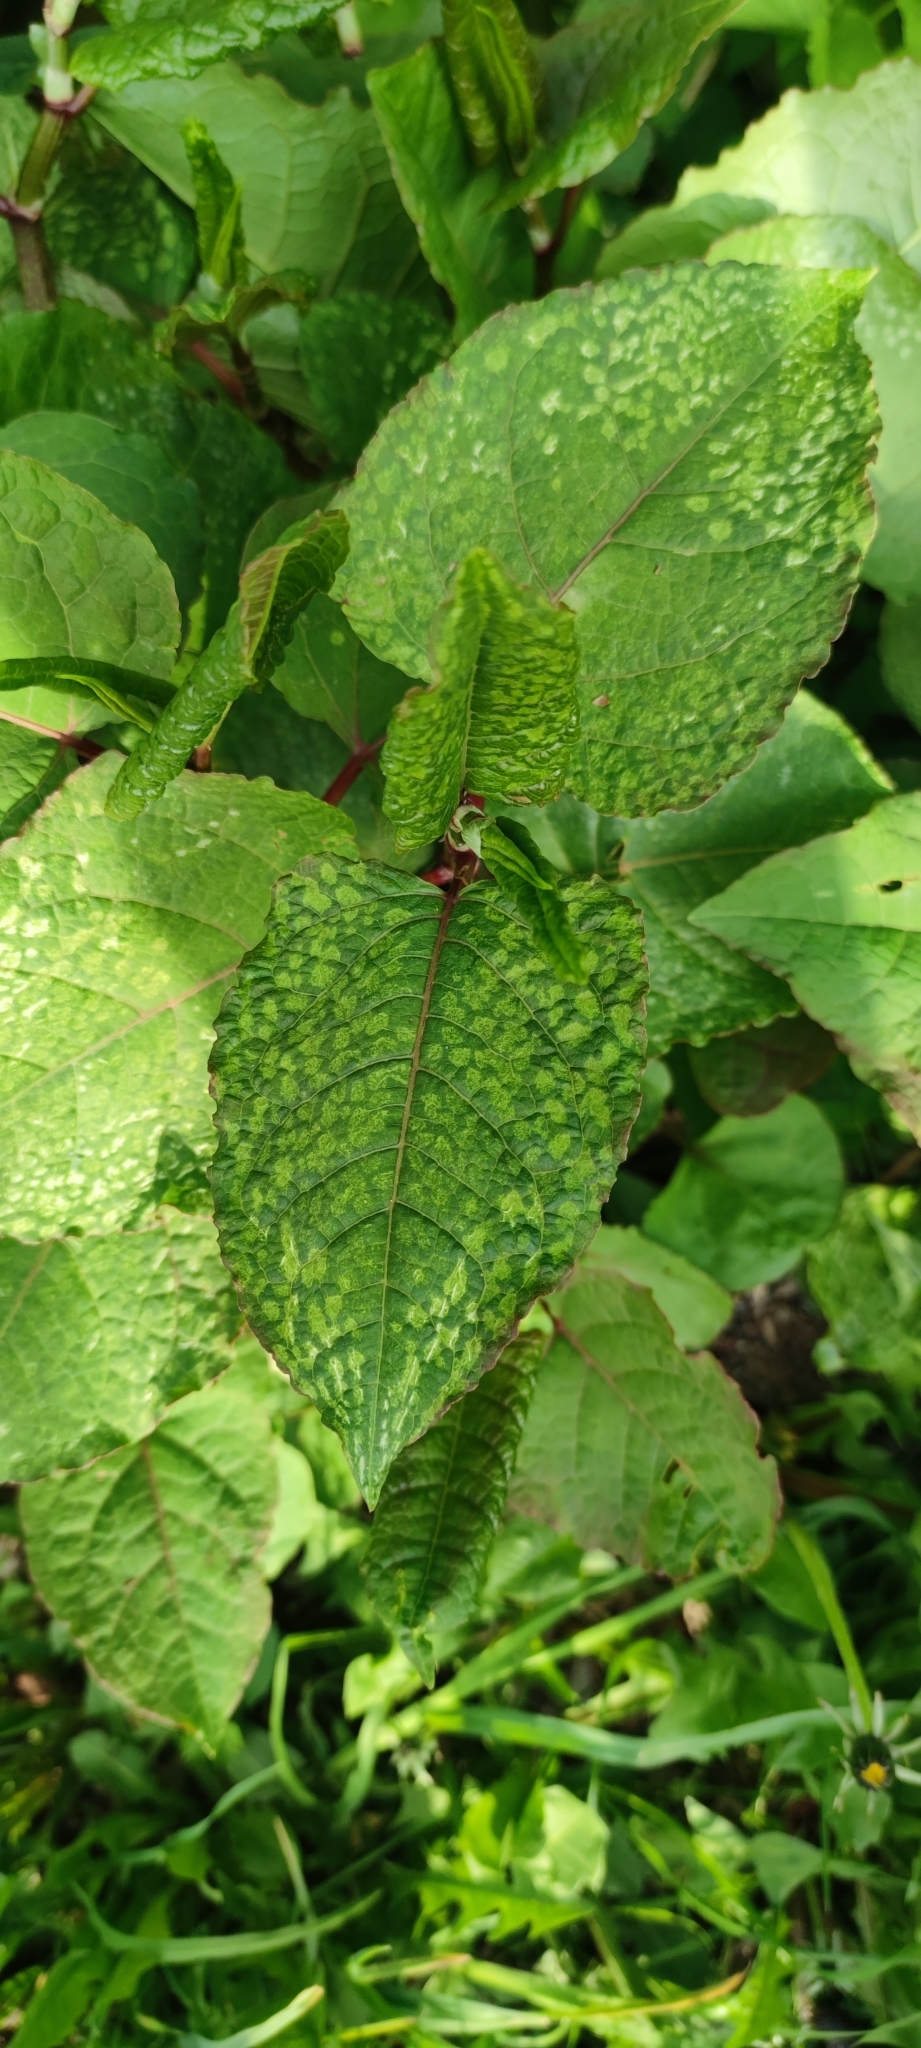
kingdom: Plantae
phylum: Tracheophyta
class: Magnoliopsida
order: Caryophyllales
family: Polygonaceae
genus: Reynoutria
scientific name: Reynoutria bohemica
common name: Bohemian knotweed
